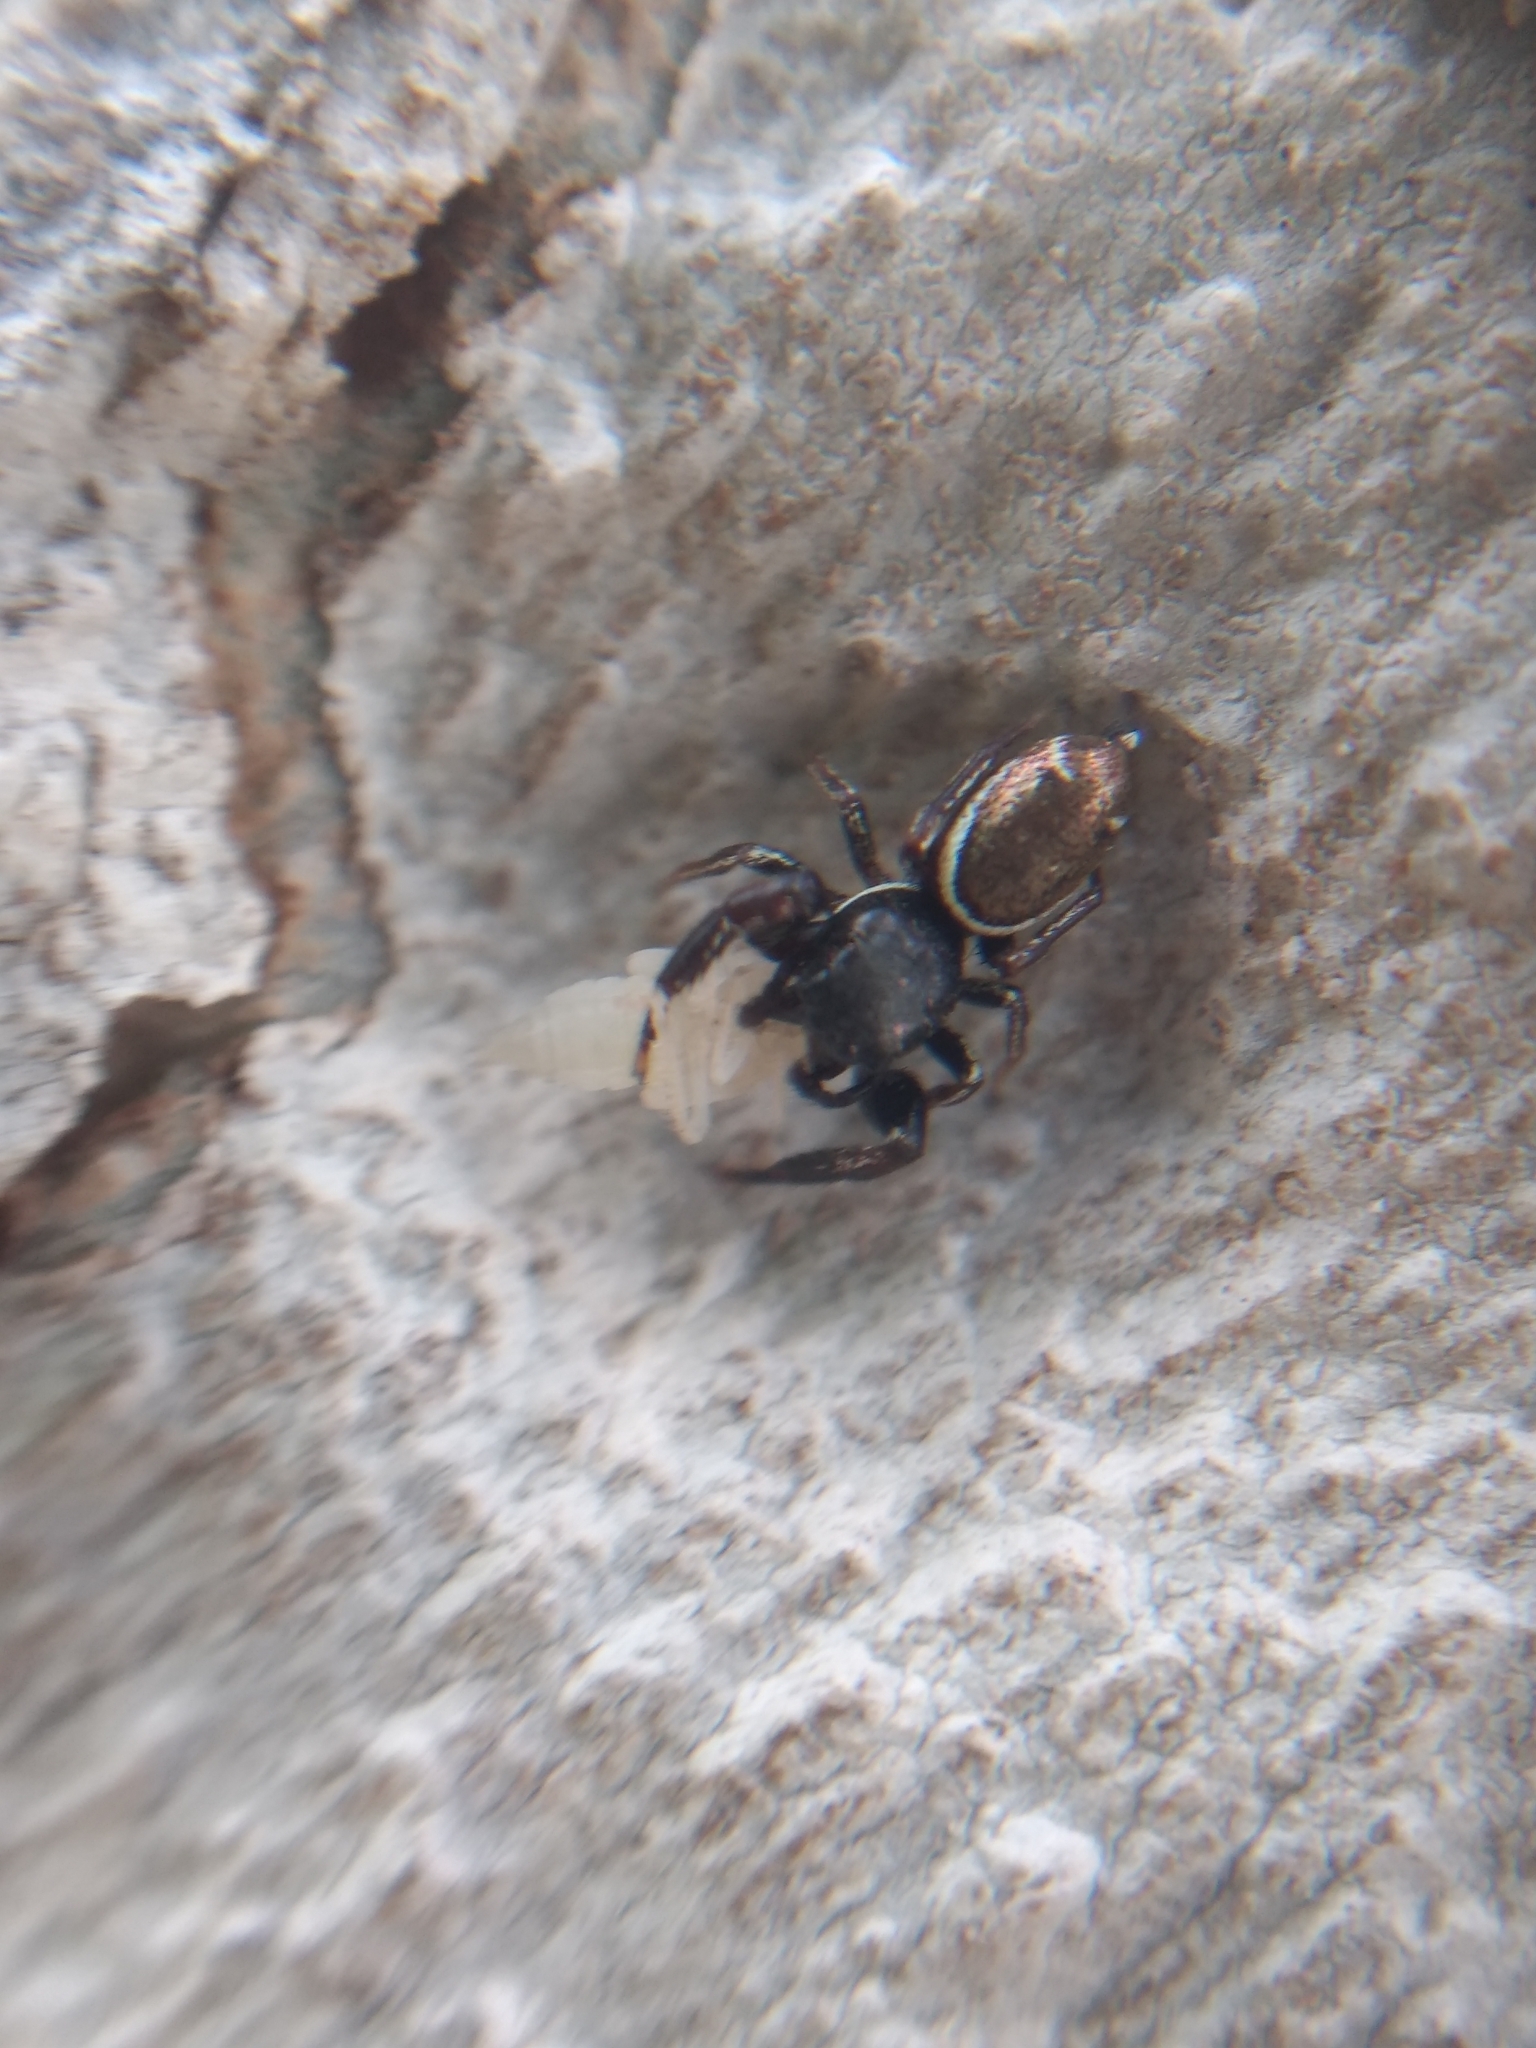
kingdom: Animalia
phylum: Arthropoda
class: Arachnida
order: Araneae
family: Salticidae
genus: Sassacus
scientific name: Sassacus vitis
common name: Jumping spiders
